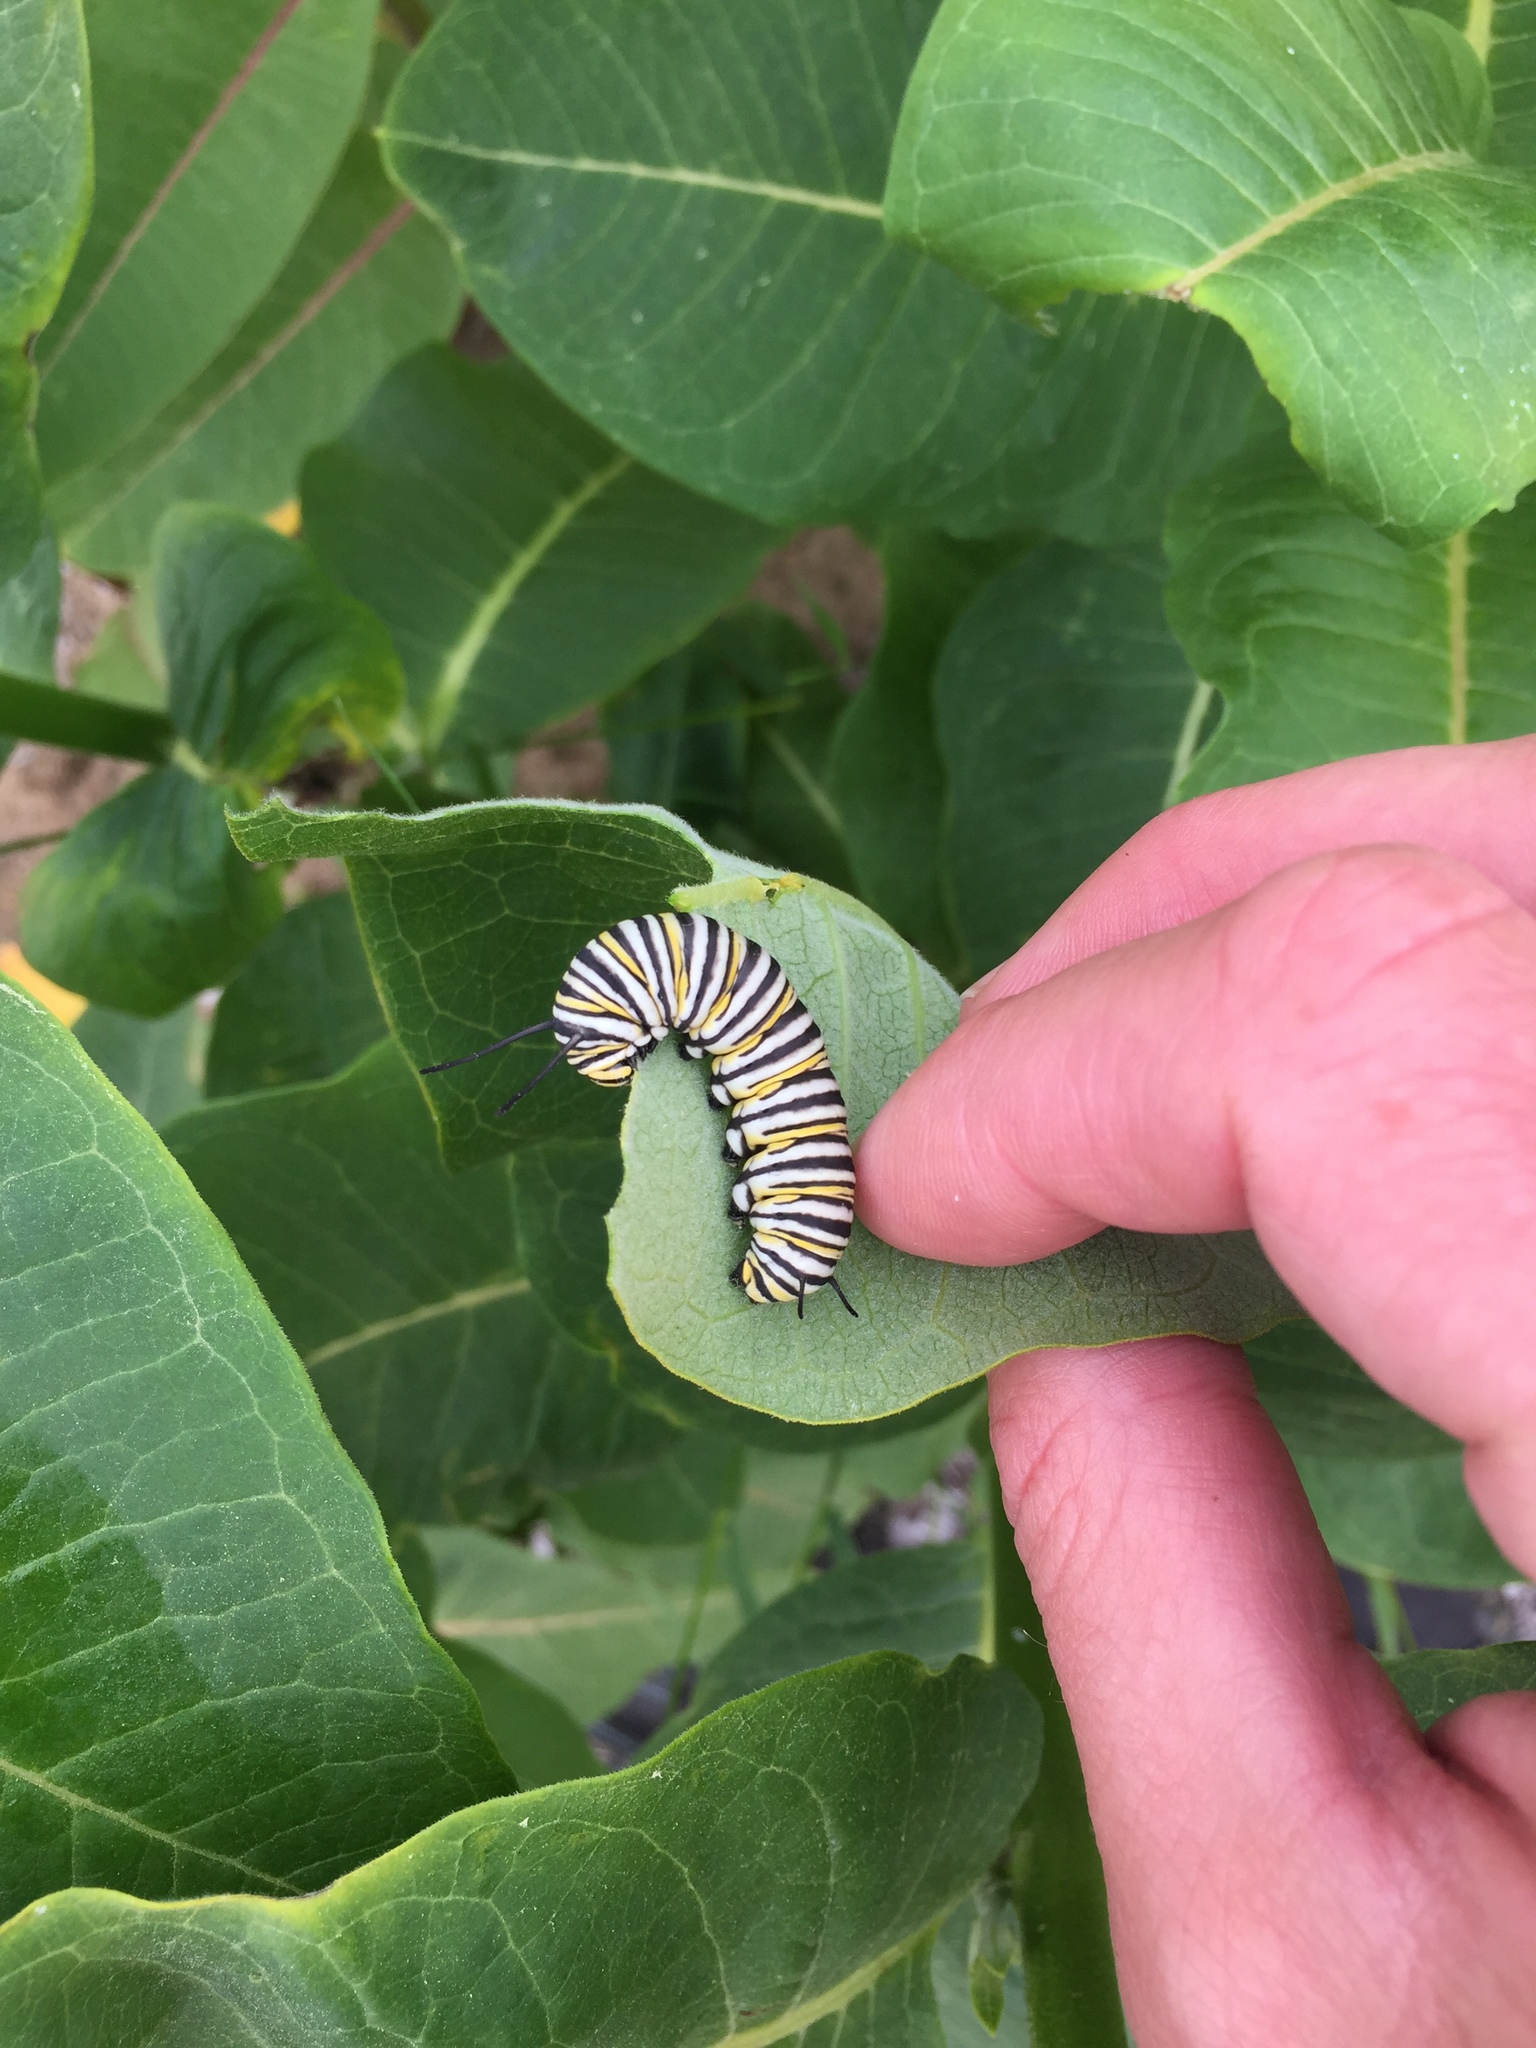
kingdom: Animalia
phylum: Arthropoda
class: Insecta
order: Lepidoptera
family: Nymphalidae
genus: Danaus
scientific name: Danaus plexippus
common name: Monarch
